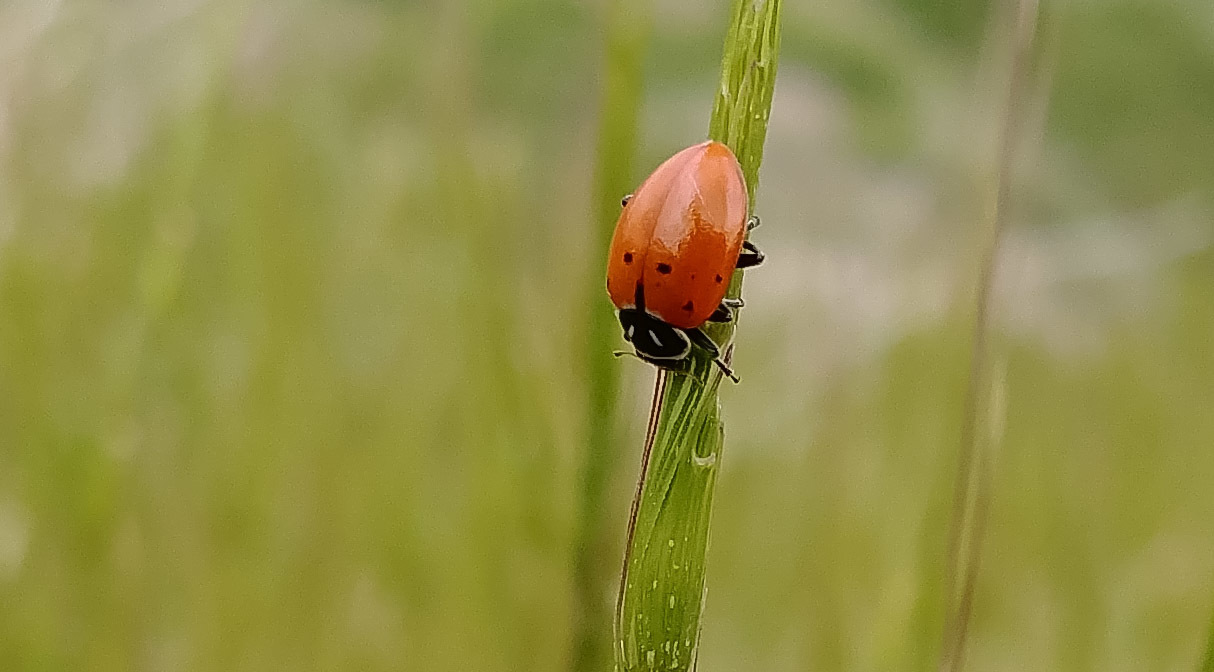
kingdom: Animalia
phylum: Arthropoda
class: Insecta
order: Coleoptera
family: Coccinellidae
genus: Hippodamia
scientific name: Hippodamia convergens
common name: Convergent lady beetle
